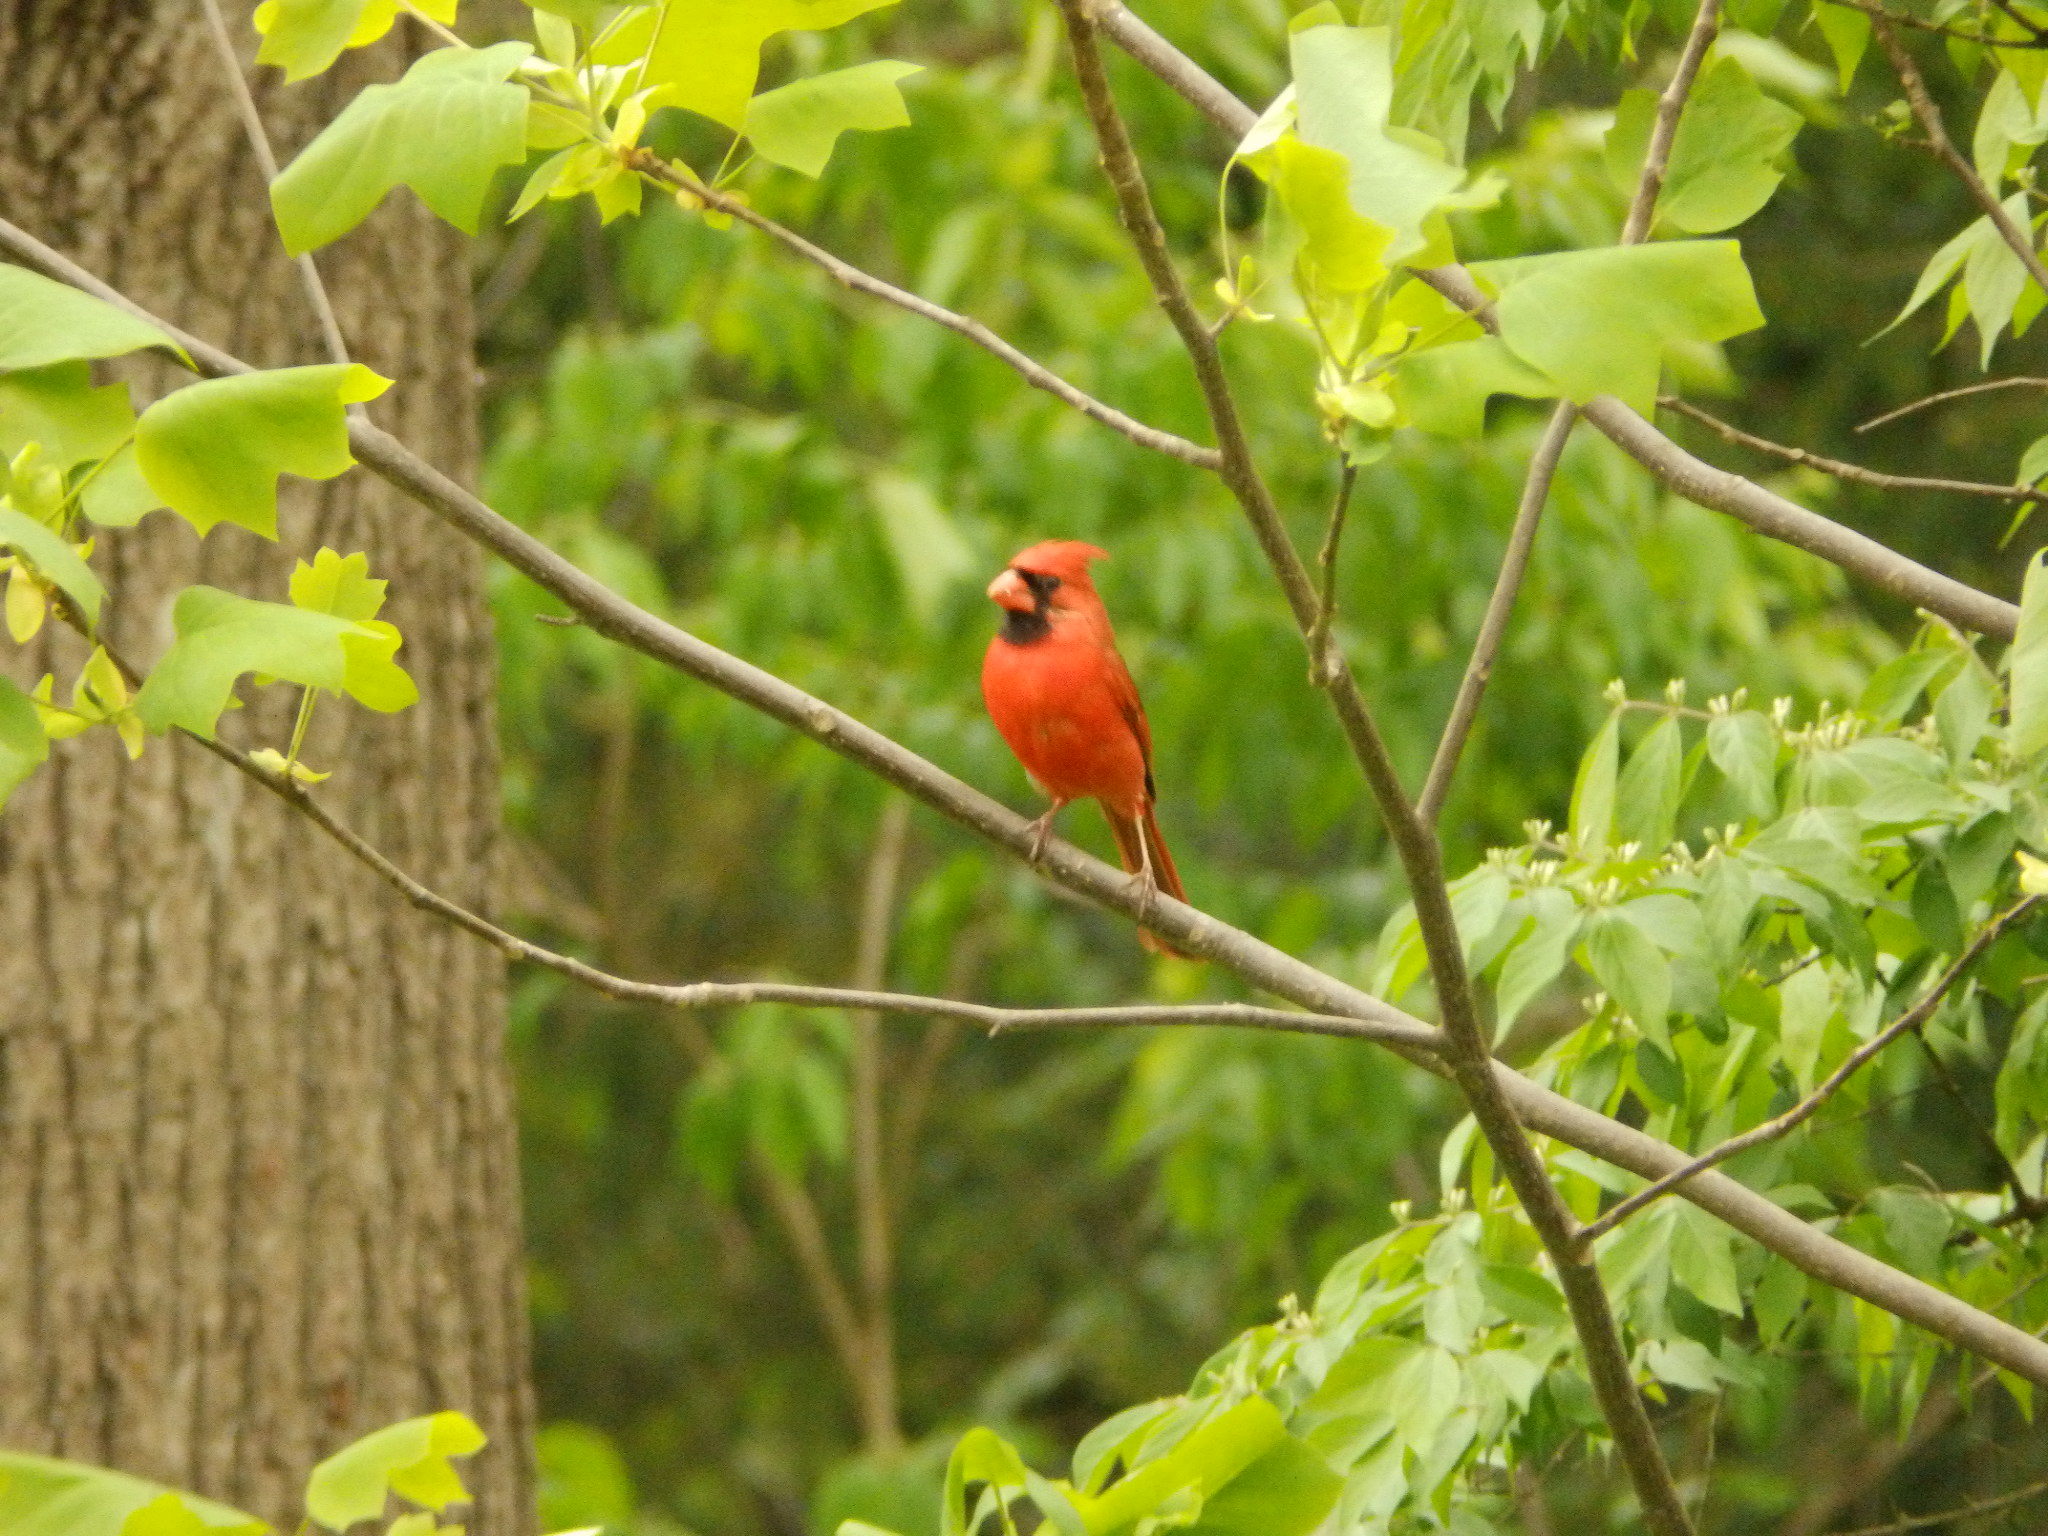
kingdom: Animalia
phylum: Chordata
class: Aves
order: Passeriformes
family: Cardinalidae
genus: Cardinalis
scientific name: Cardinalis cardinalis
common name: Northern cardinal
